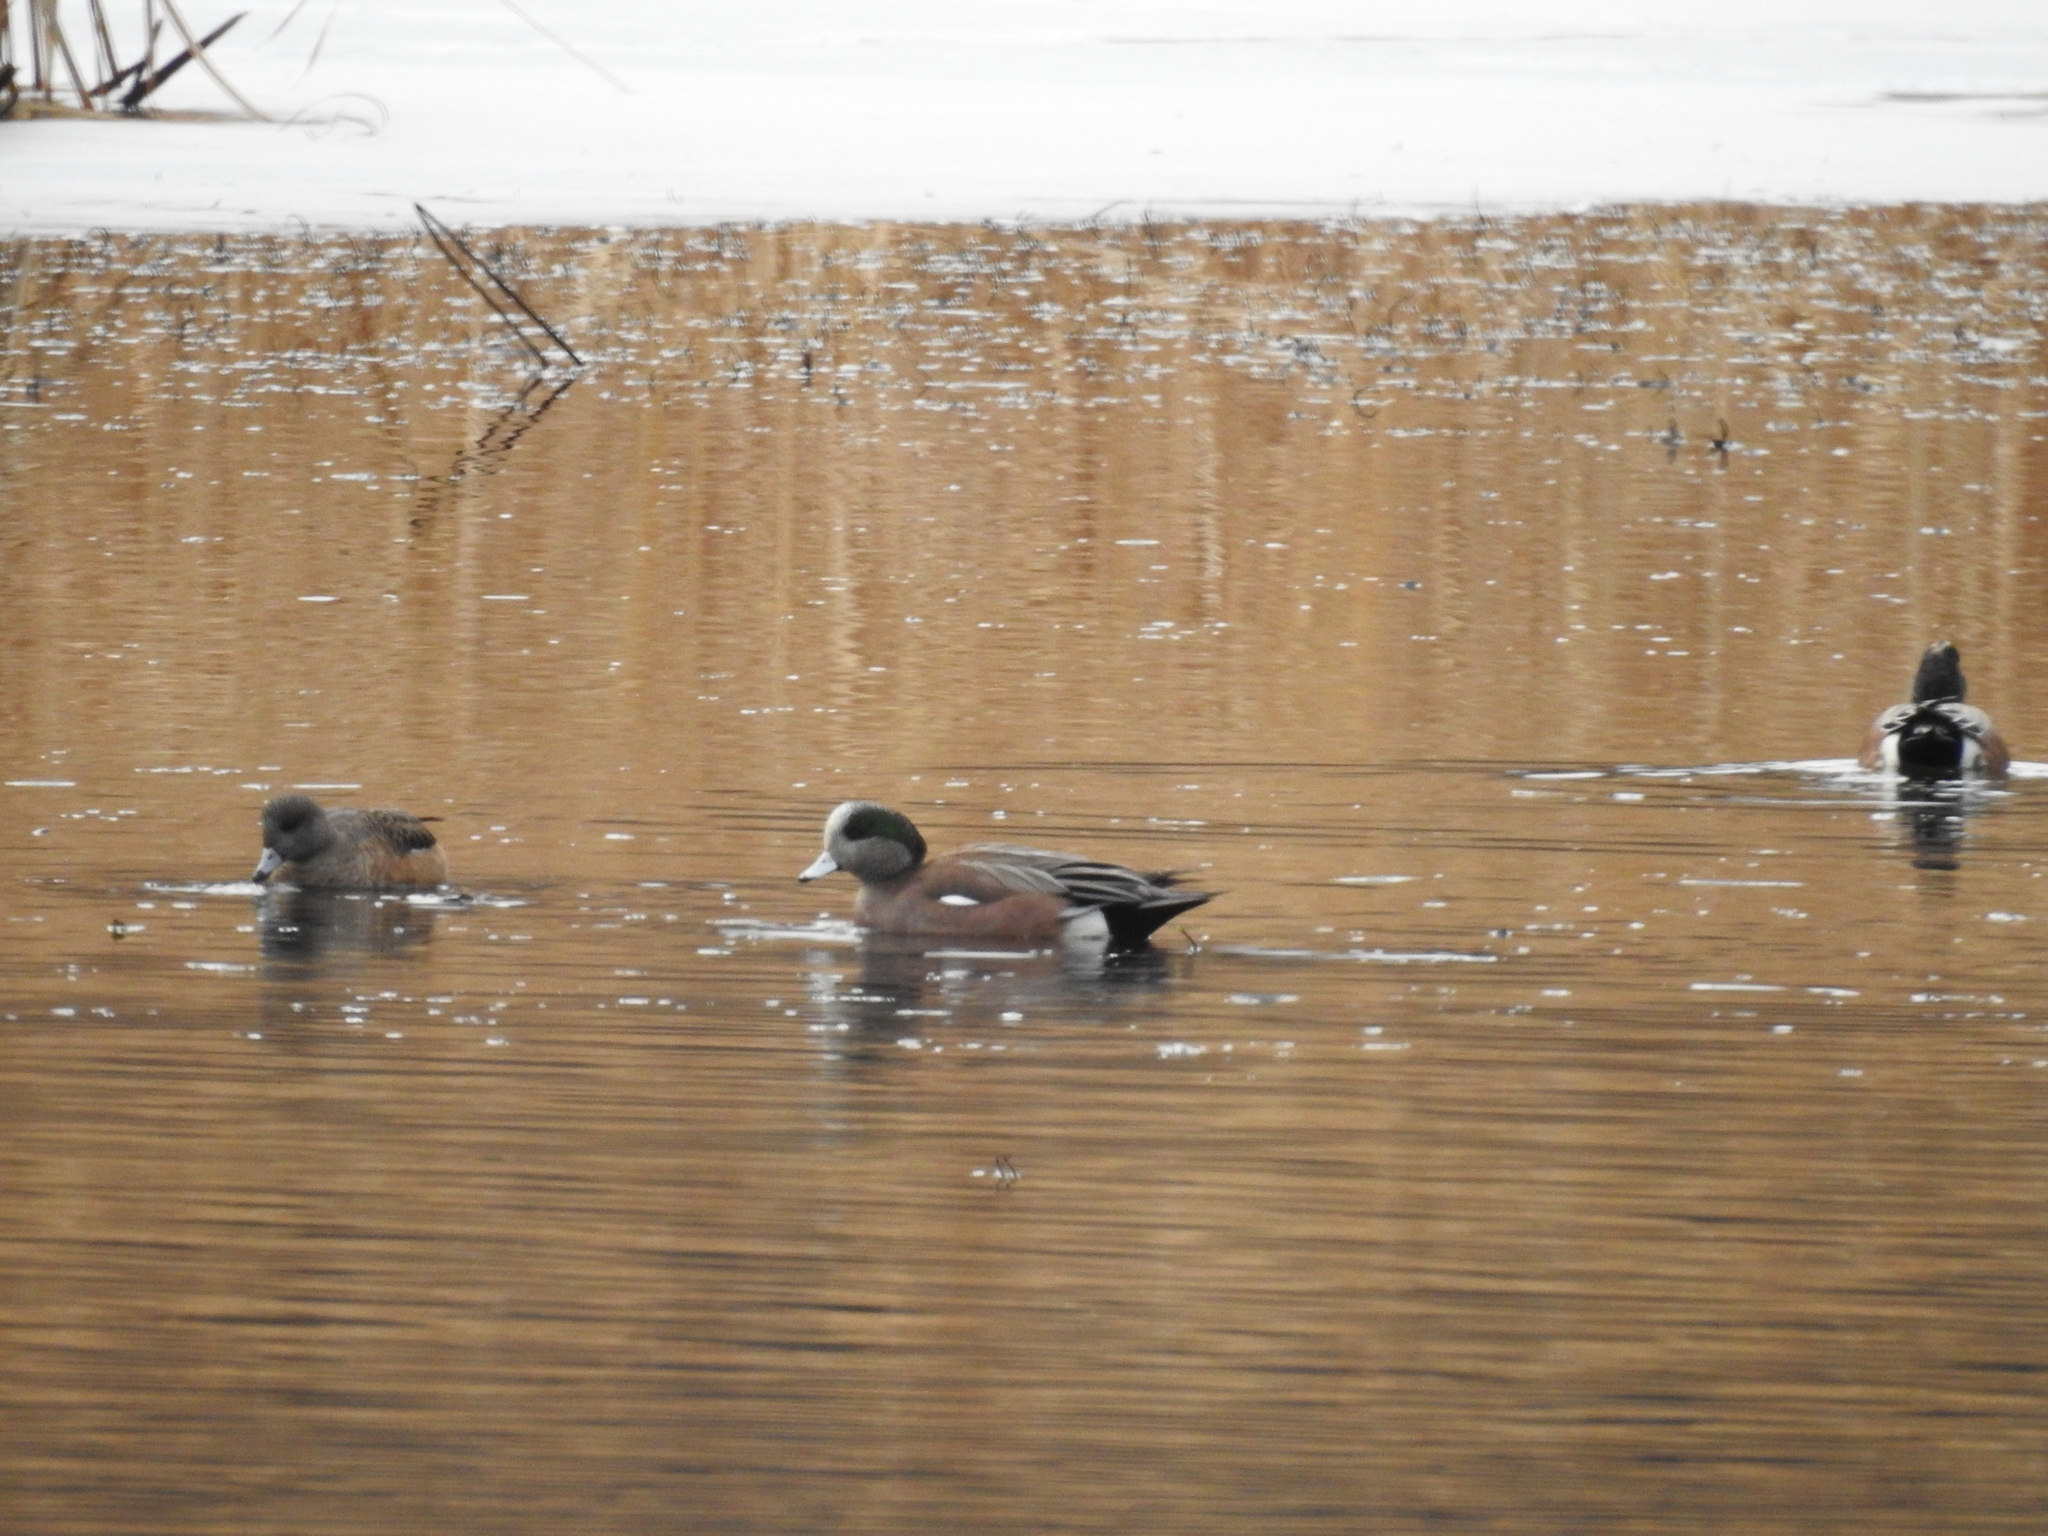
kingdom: Animalia
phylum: Chordata
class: Aves
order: Anseriformes
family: Anatidae
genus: Mareca
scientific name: Mareca americana
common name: American wigeon
